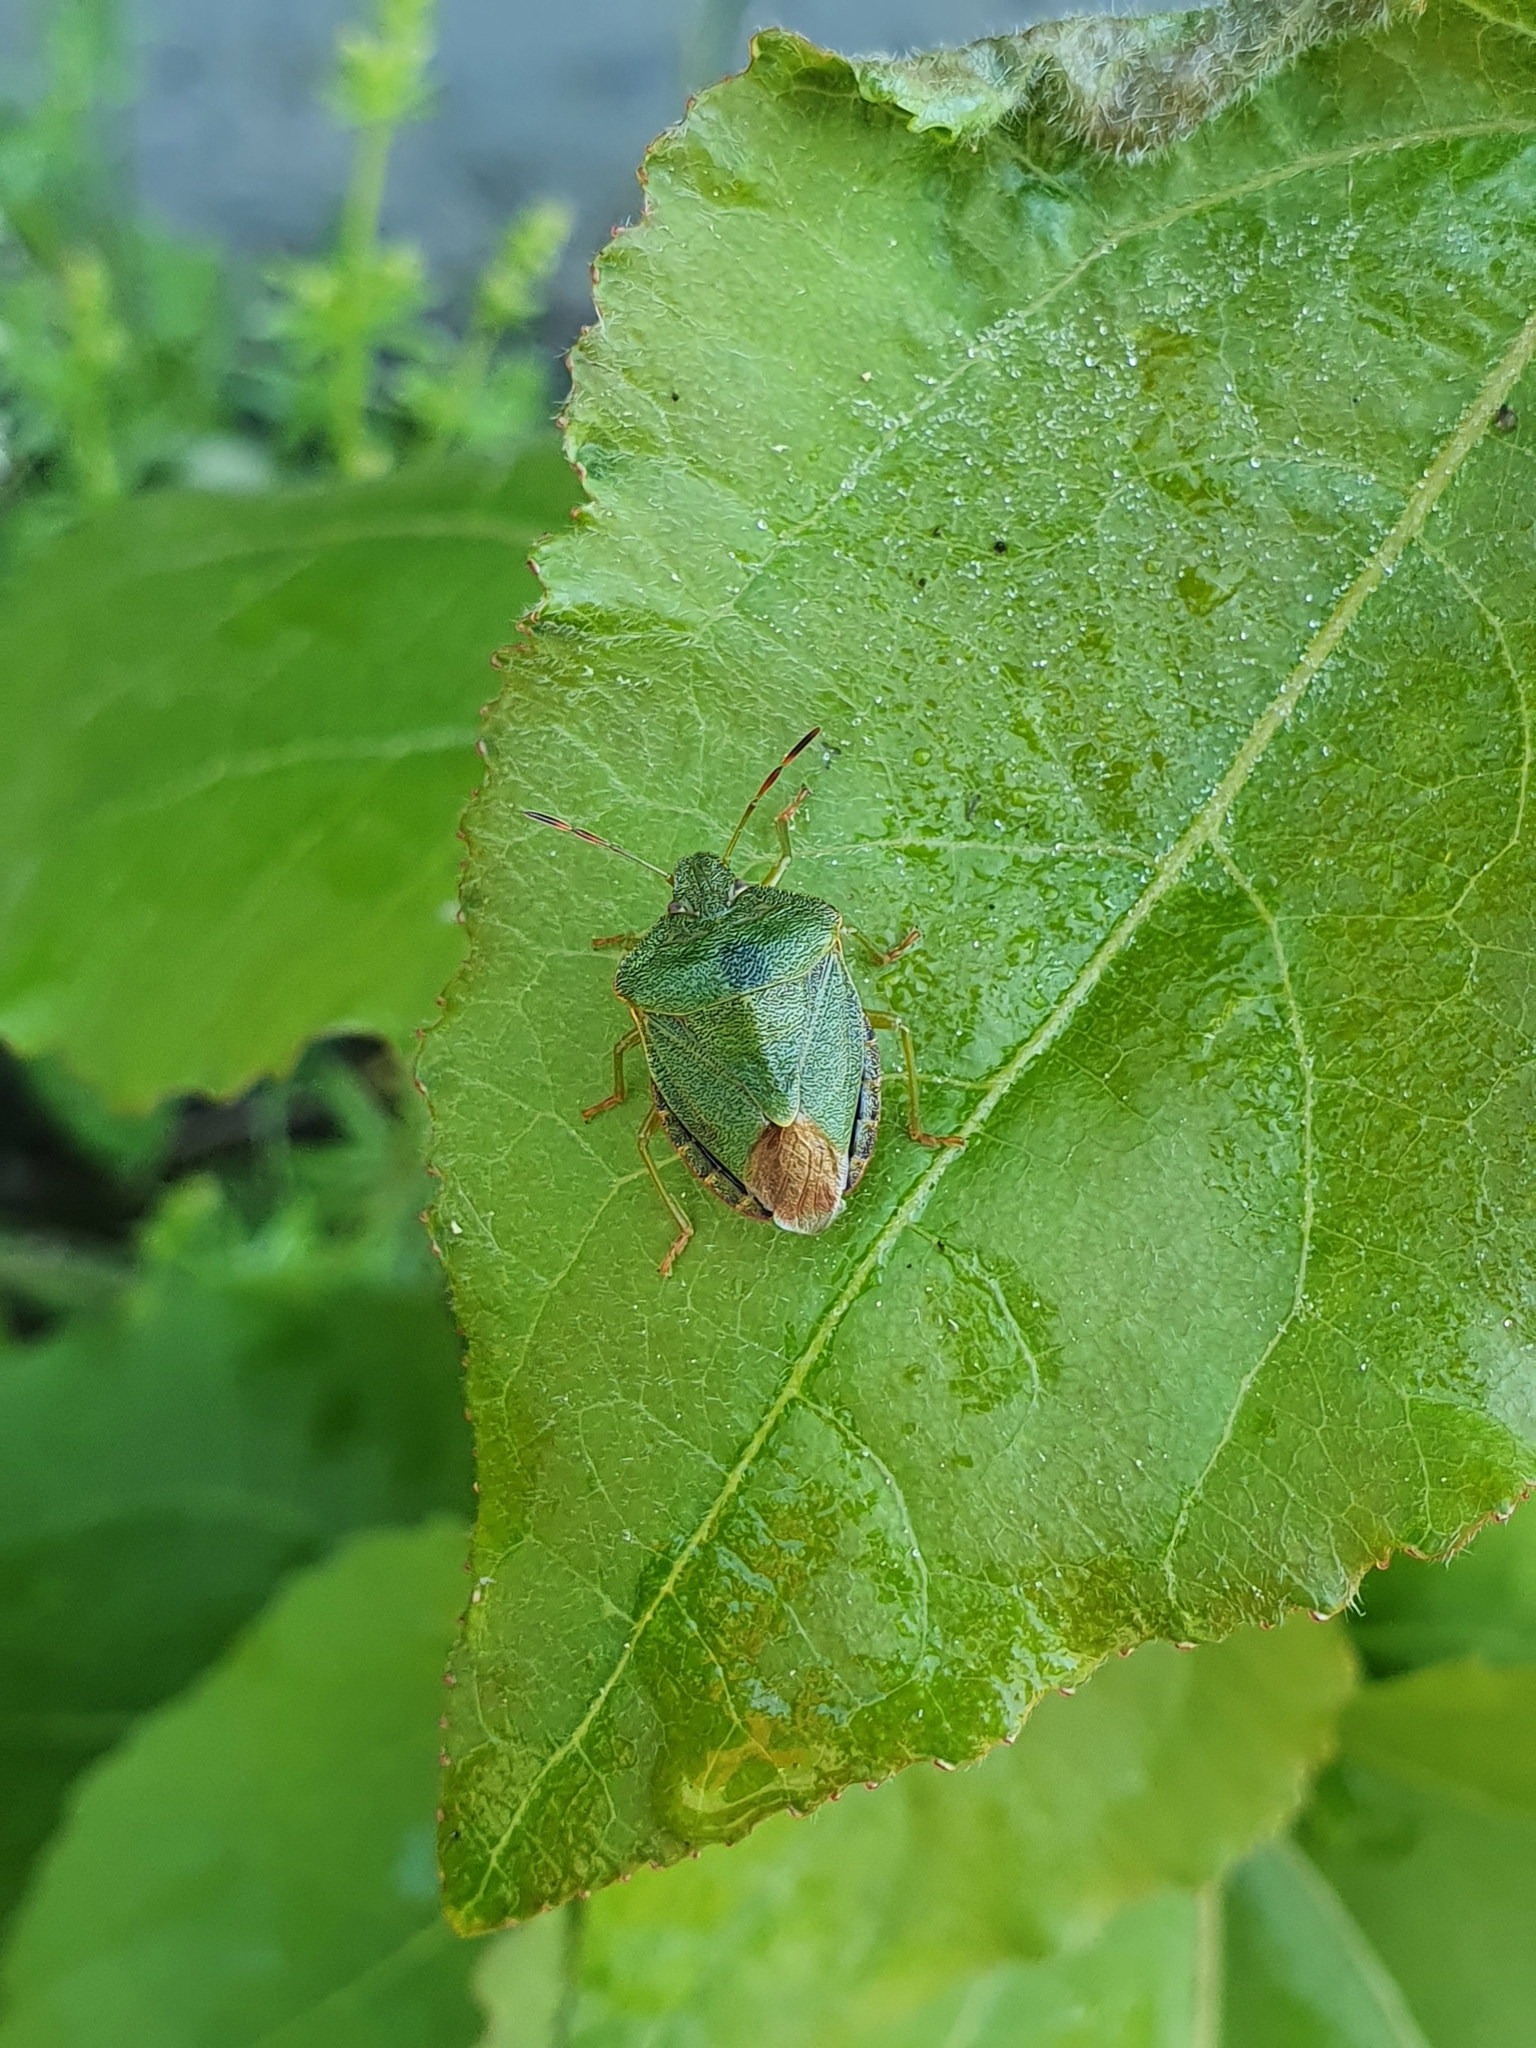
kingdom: Animalia
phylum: Arthropoda
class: Insecta
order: Hemiptera
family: Pentatomidae
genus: Palomena
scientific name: Palomena prasina
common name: Green shieldbug
